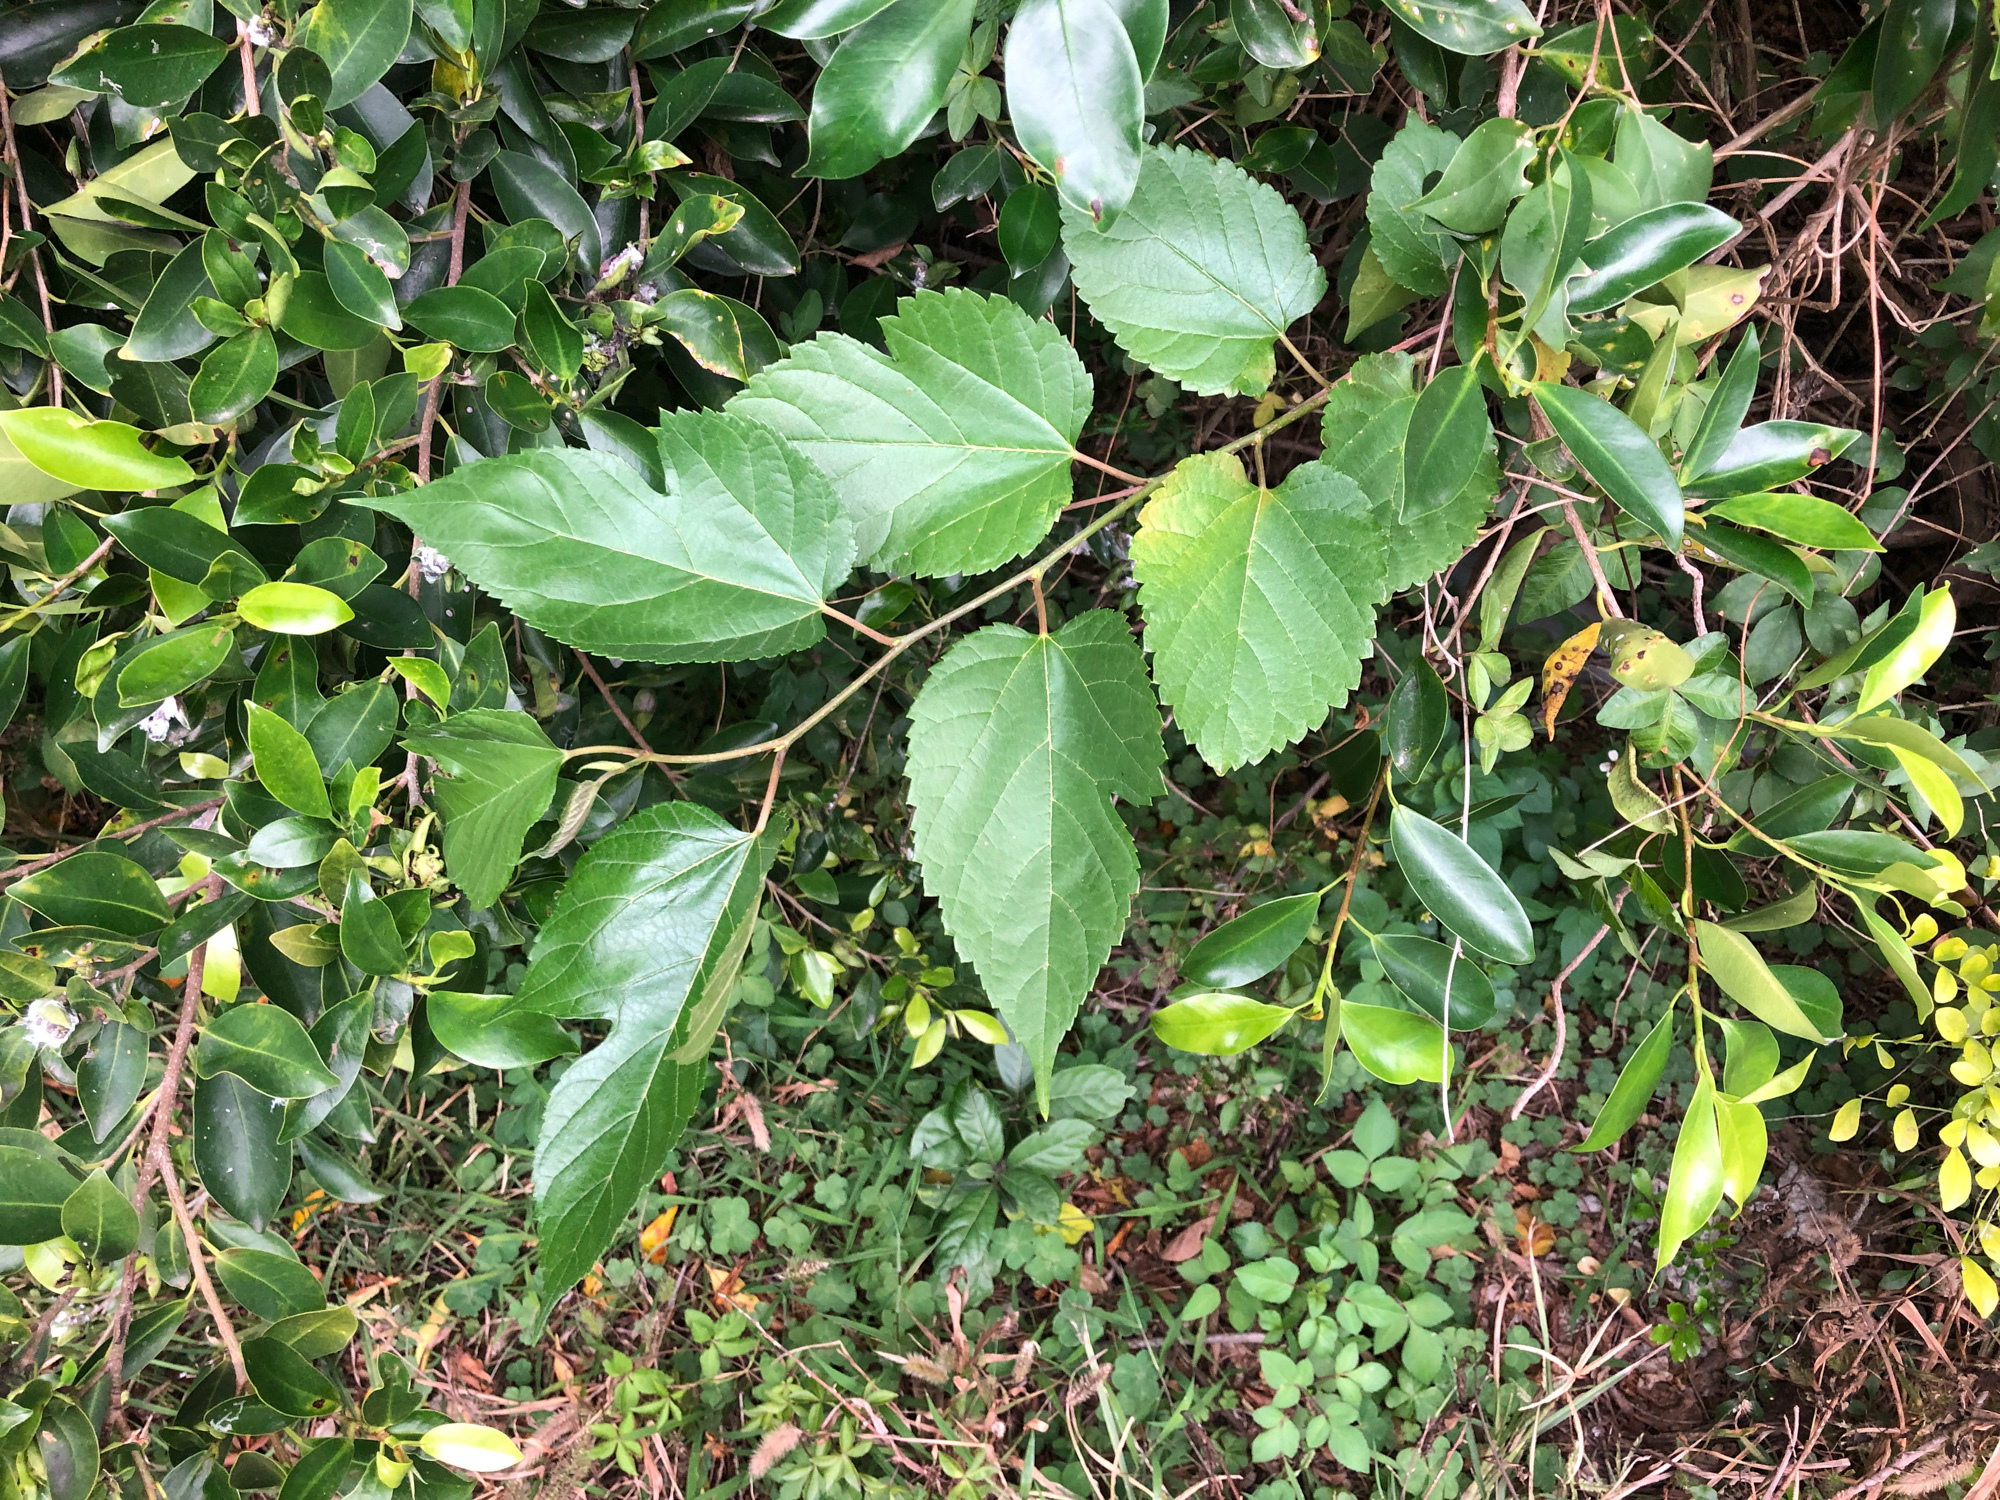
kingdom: Plantae
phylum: Tracheophyta
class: Magnoliopsida
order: Rosales
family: Moraceae
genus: Morus
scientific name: Morus indica
